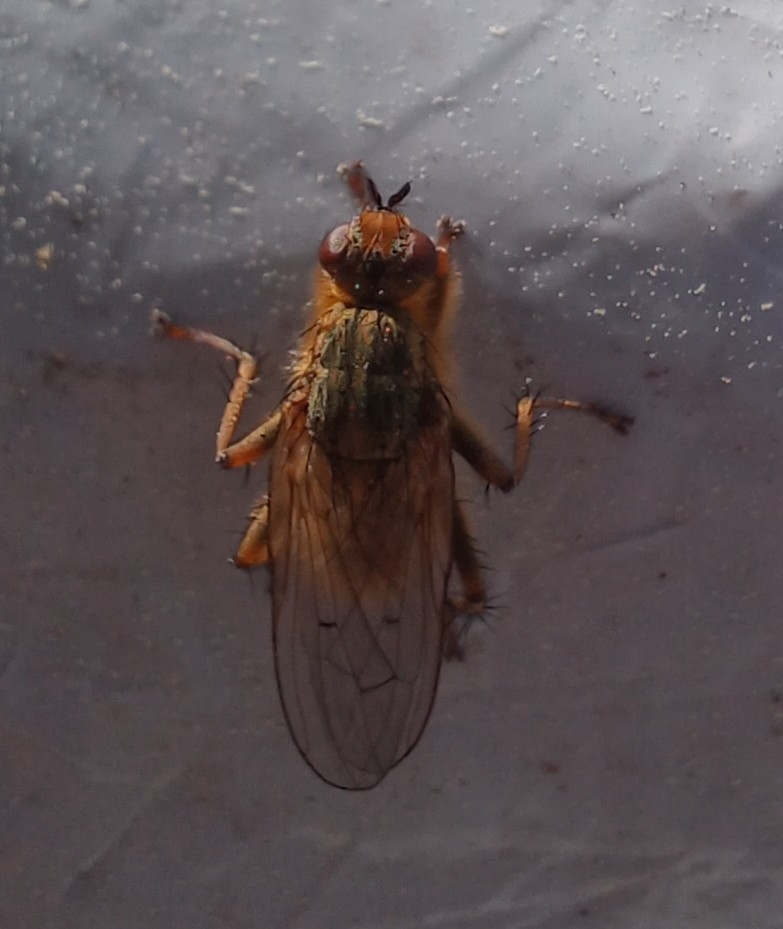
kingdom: Animalia
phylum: Arthropoda
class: Insecta
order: Diptera
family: Scathophagidae
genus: Scathophaga
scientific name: Scathophaga stercoraria
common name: Yellow dung fly
